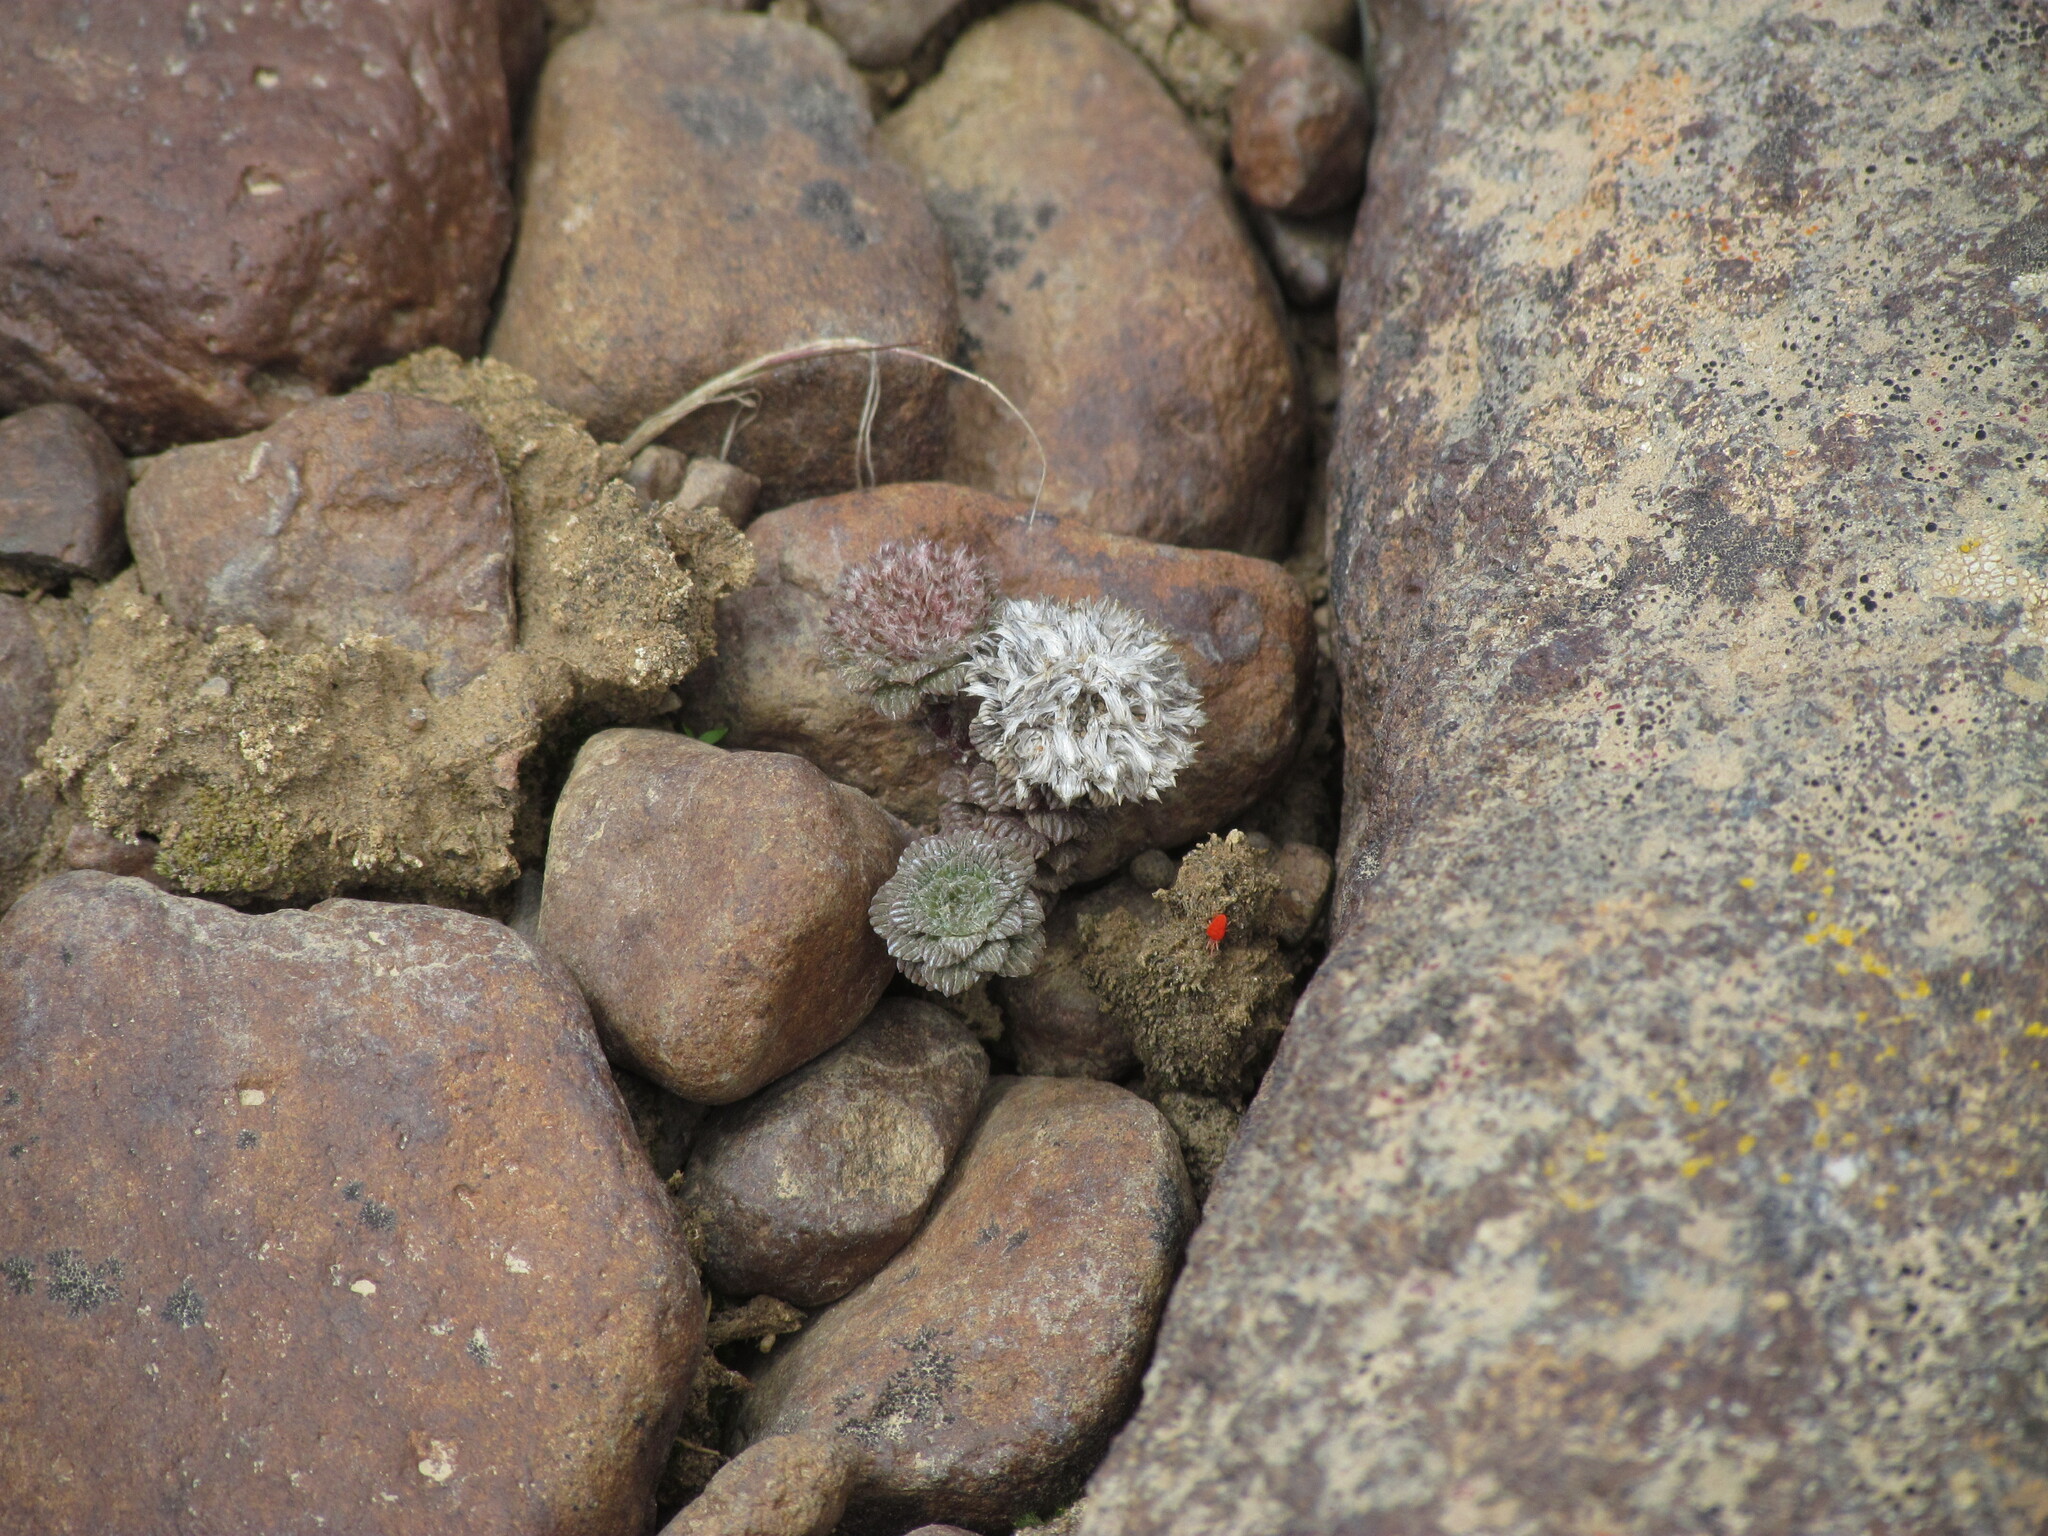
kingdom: Plantae
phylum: Tracheophyta
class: Magnoliopsida
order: Asterales
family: Asteraceae
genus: Nassauvia
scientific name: Nassauvia lagascae
